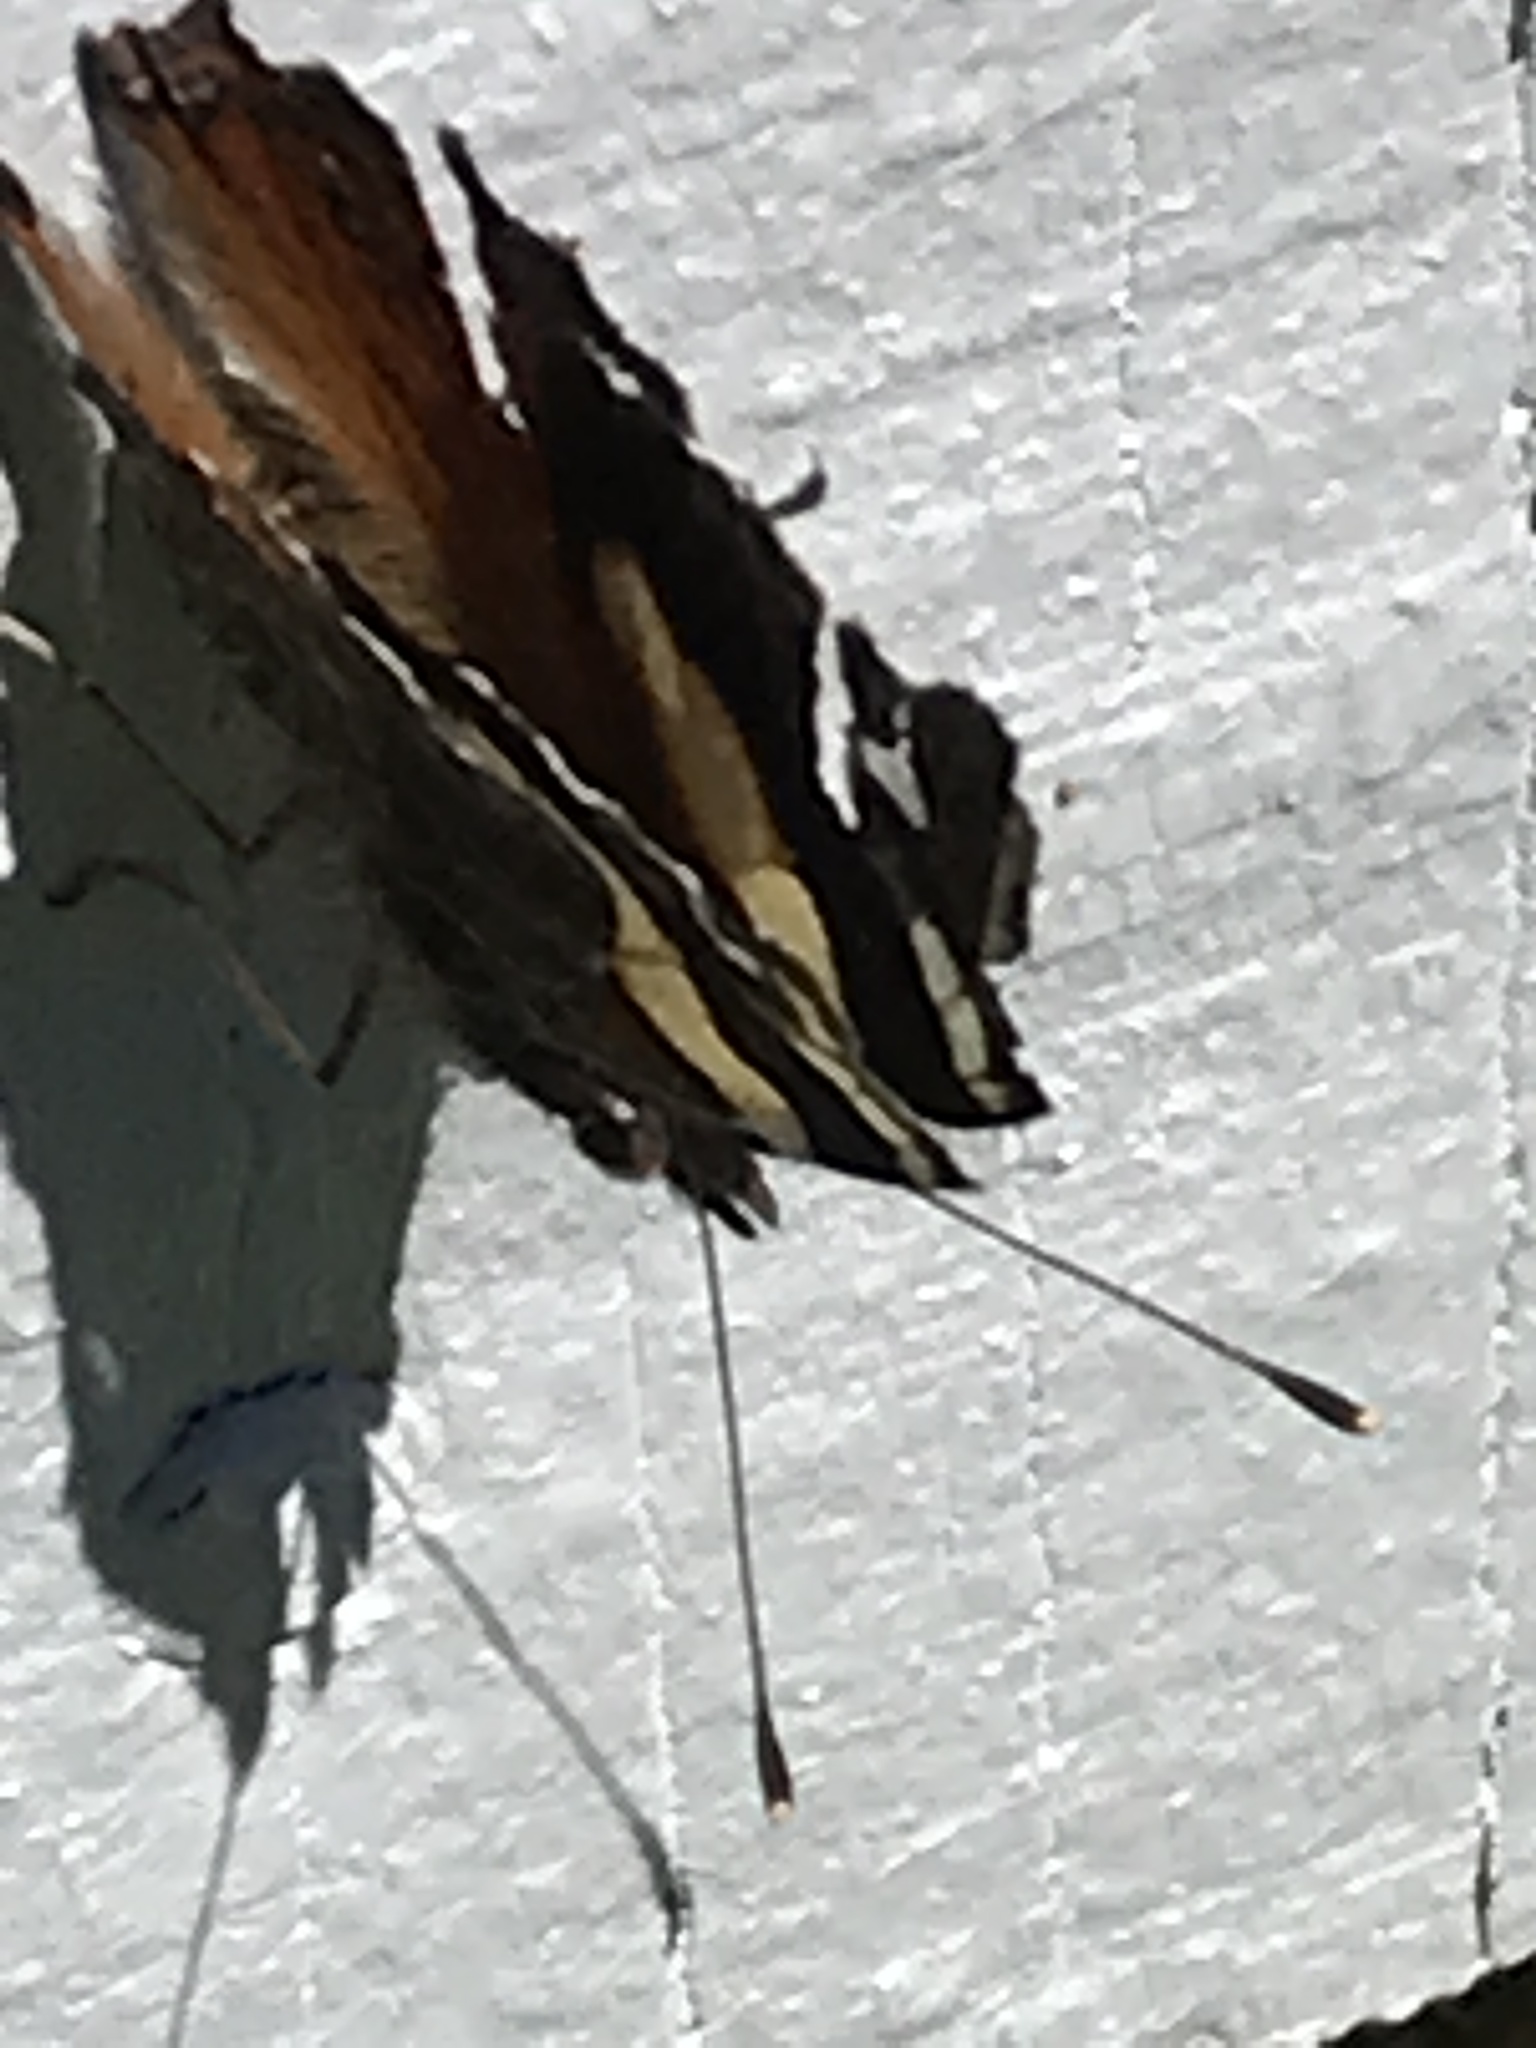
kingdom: Animalia
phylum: Arthropoda
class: Insecta
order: Lepidoptera
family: Nymphalidae
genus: Vanessa
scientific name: Vanessa itea
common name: Yellow admiral
